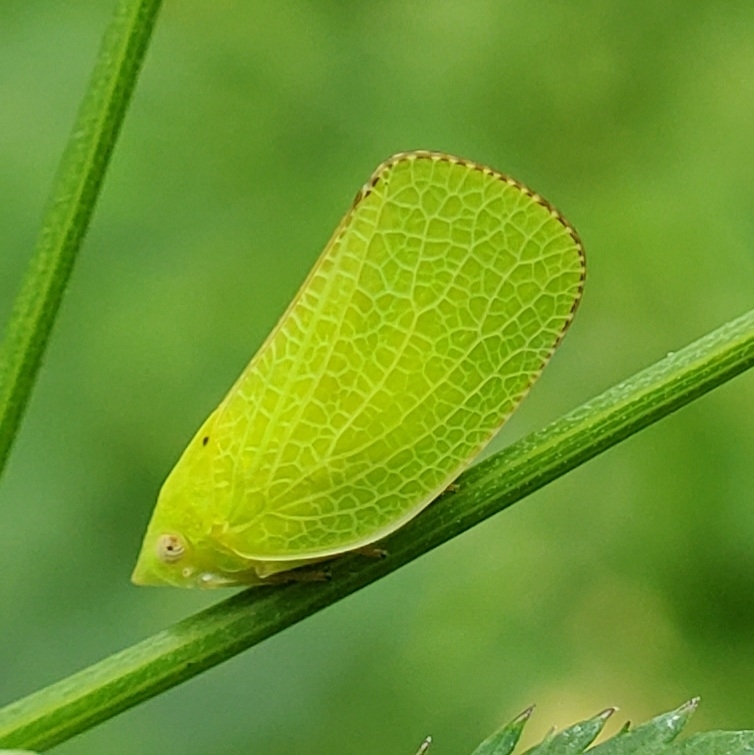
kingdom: Animalia
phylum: Arthropoda
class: Insecta
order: Hemiptera
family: Acanaloniidae
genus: Acanalonia
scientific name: Acanalonia conica
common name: Green cone-headed planthopper
